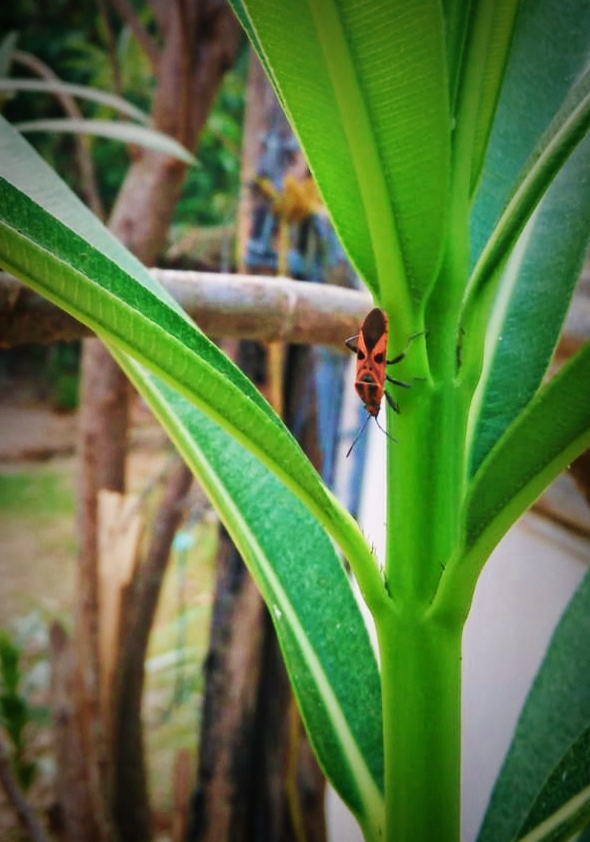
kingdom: Animalia
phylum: Arthropoda
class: Insecta
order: Hemiptera
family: Lygaeidae
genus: Spilostethus
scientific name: Spilostethus hospes
